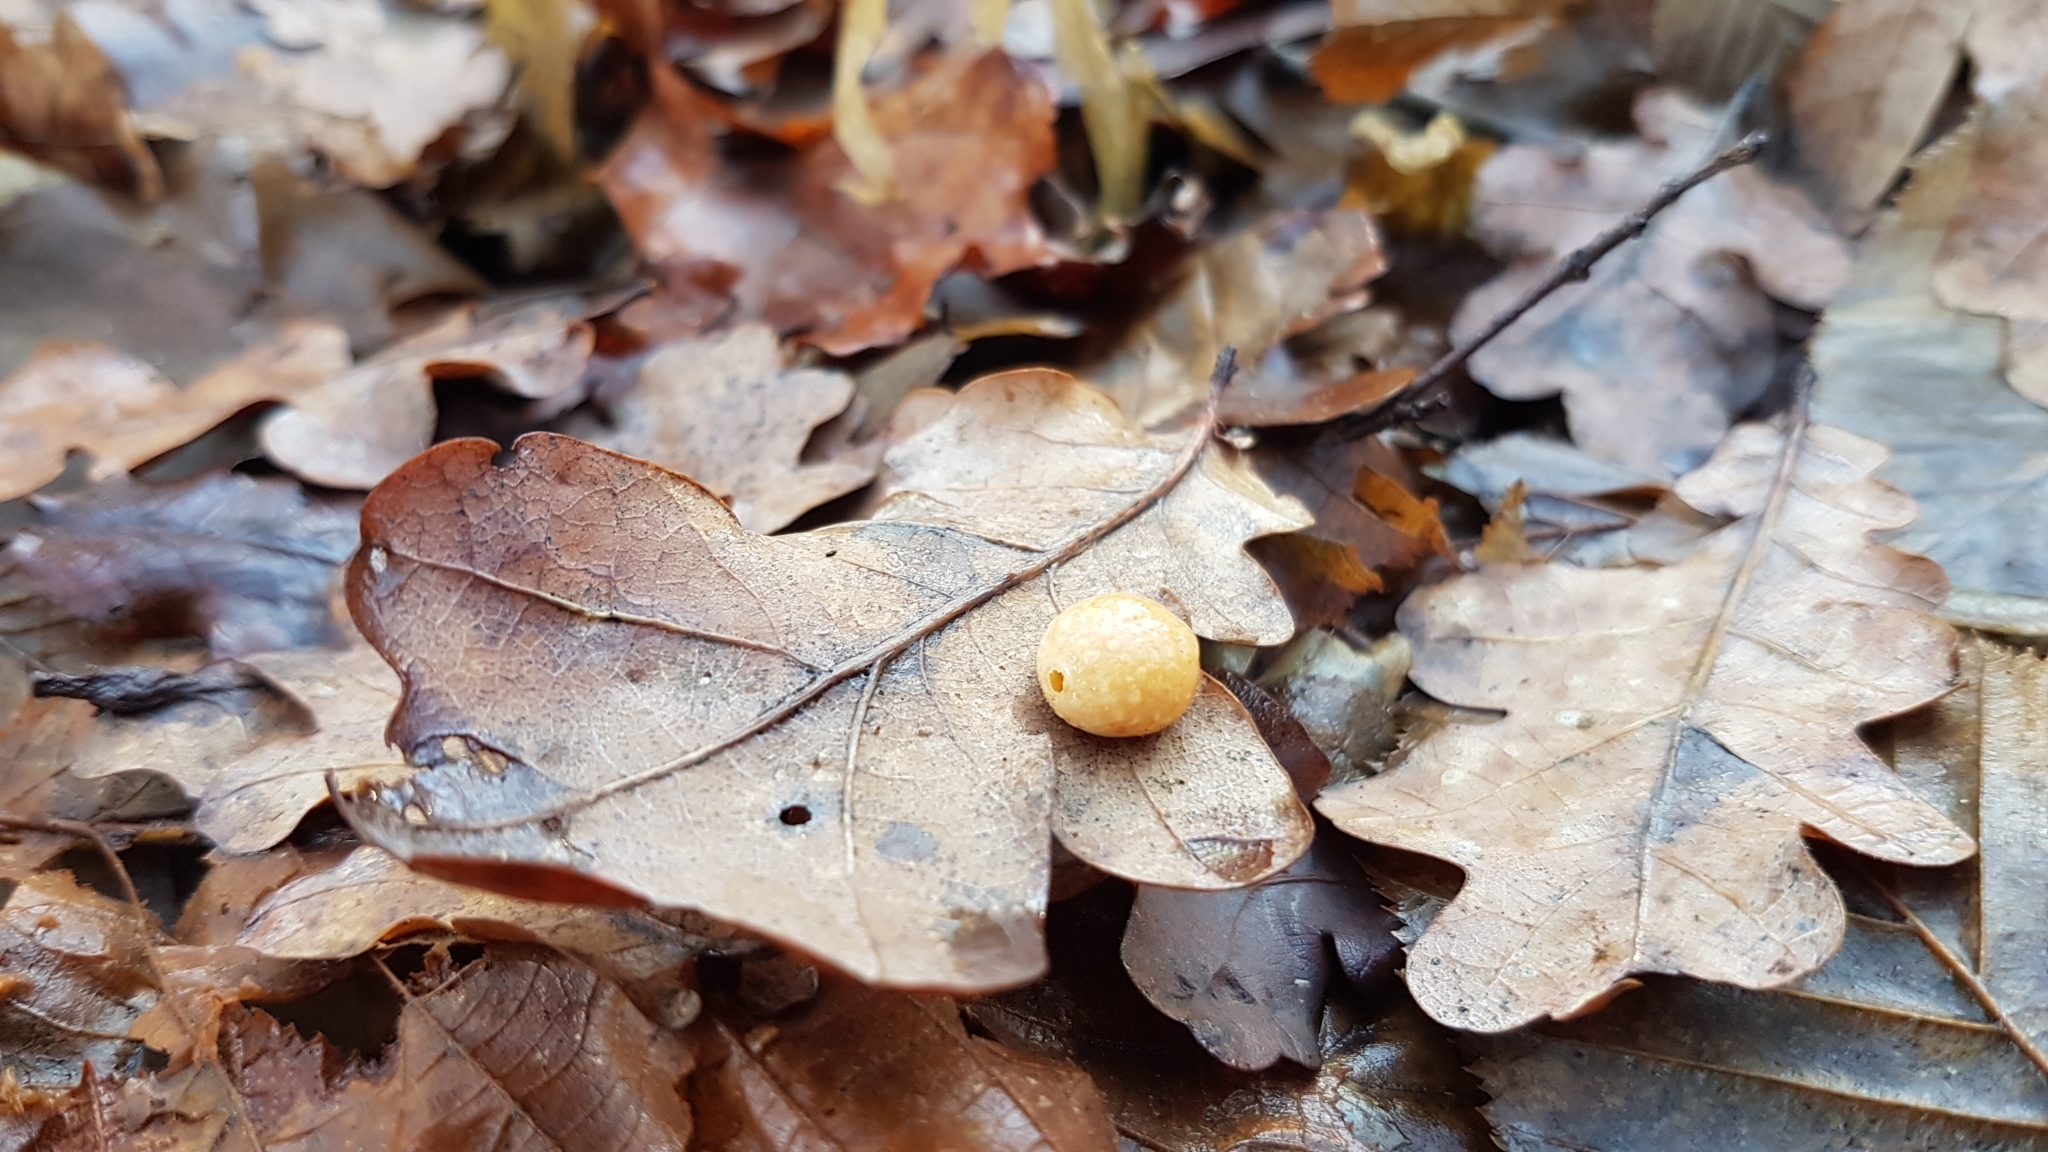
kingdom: Animalia
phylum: Arthropoda
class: Insecta
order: Hymenoptera
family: Cynipidae
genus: Cynips
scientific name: Cynips longiventris
